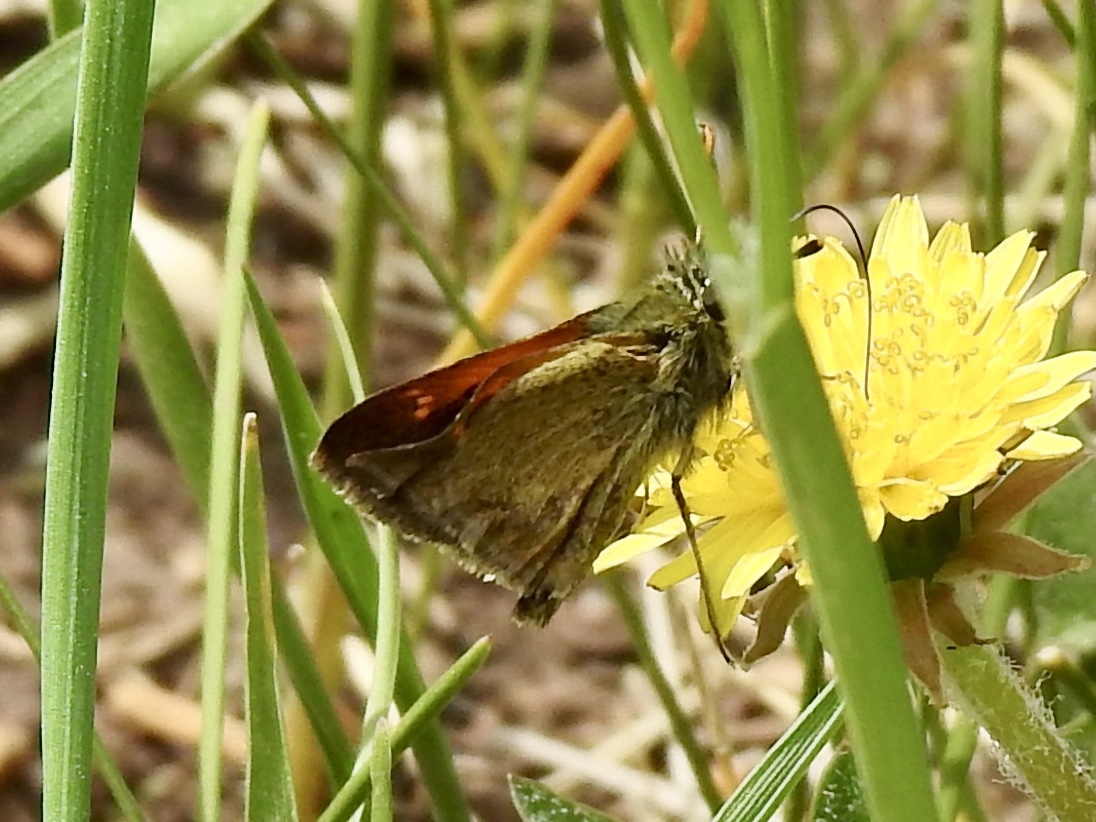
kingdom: Animalia
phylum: Arthropoda
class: Insecta
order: Lepidoptera
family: Hesperiidae
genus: Polites
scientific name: Polites themistocles
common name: Tawny-edged skipper
